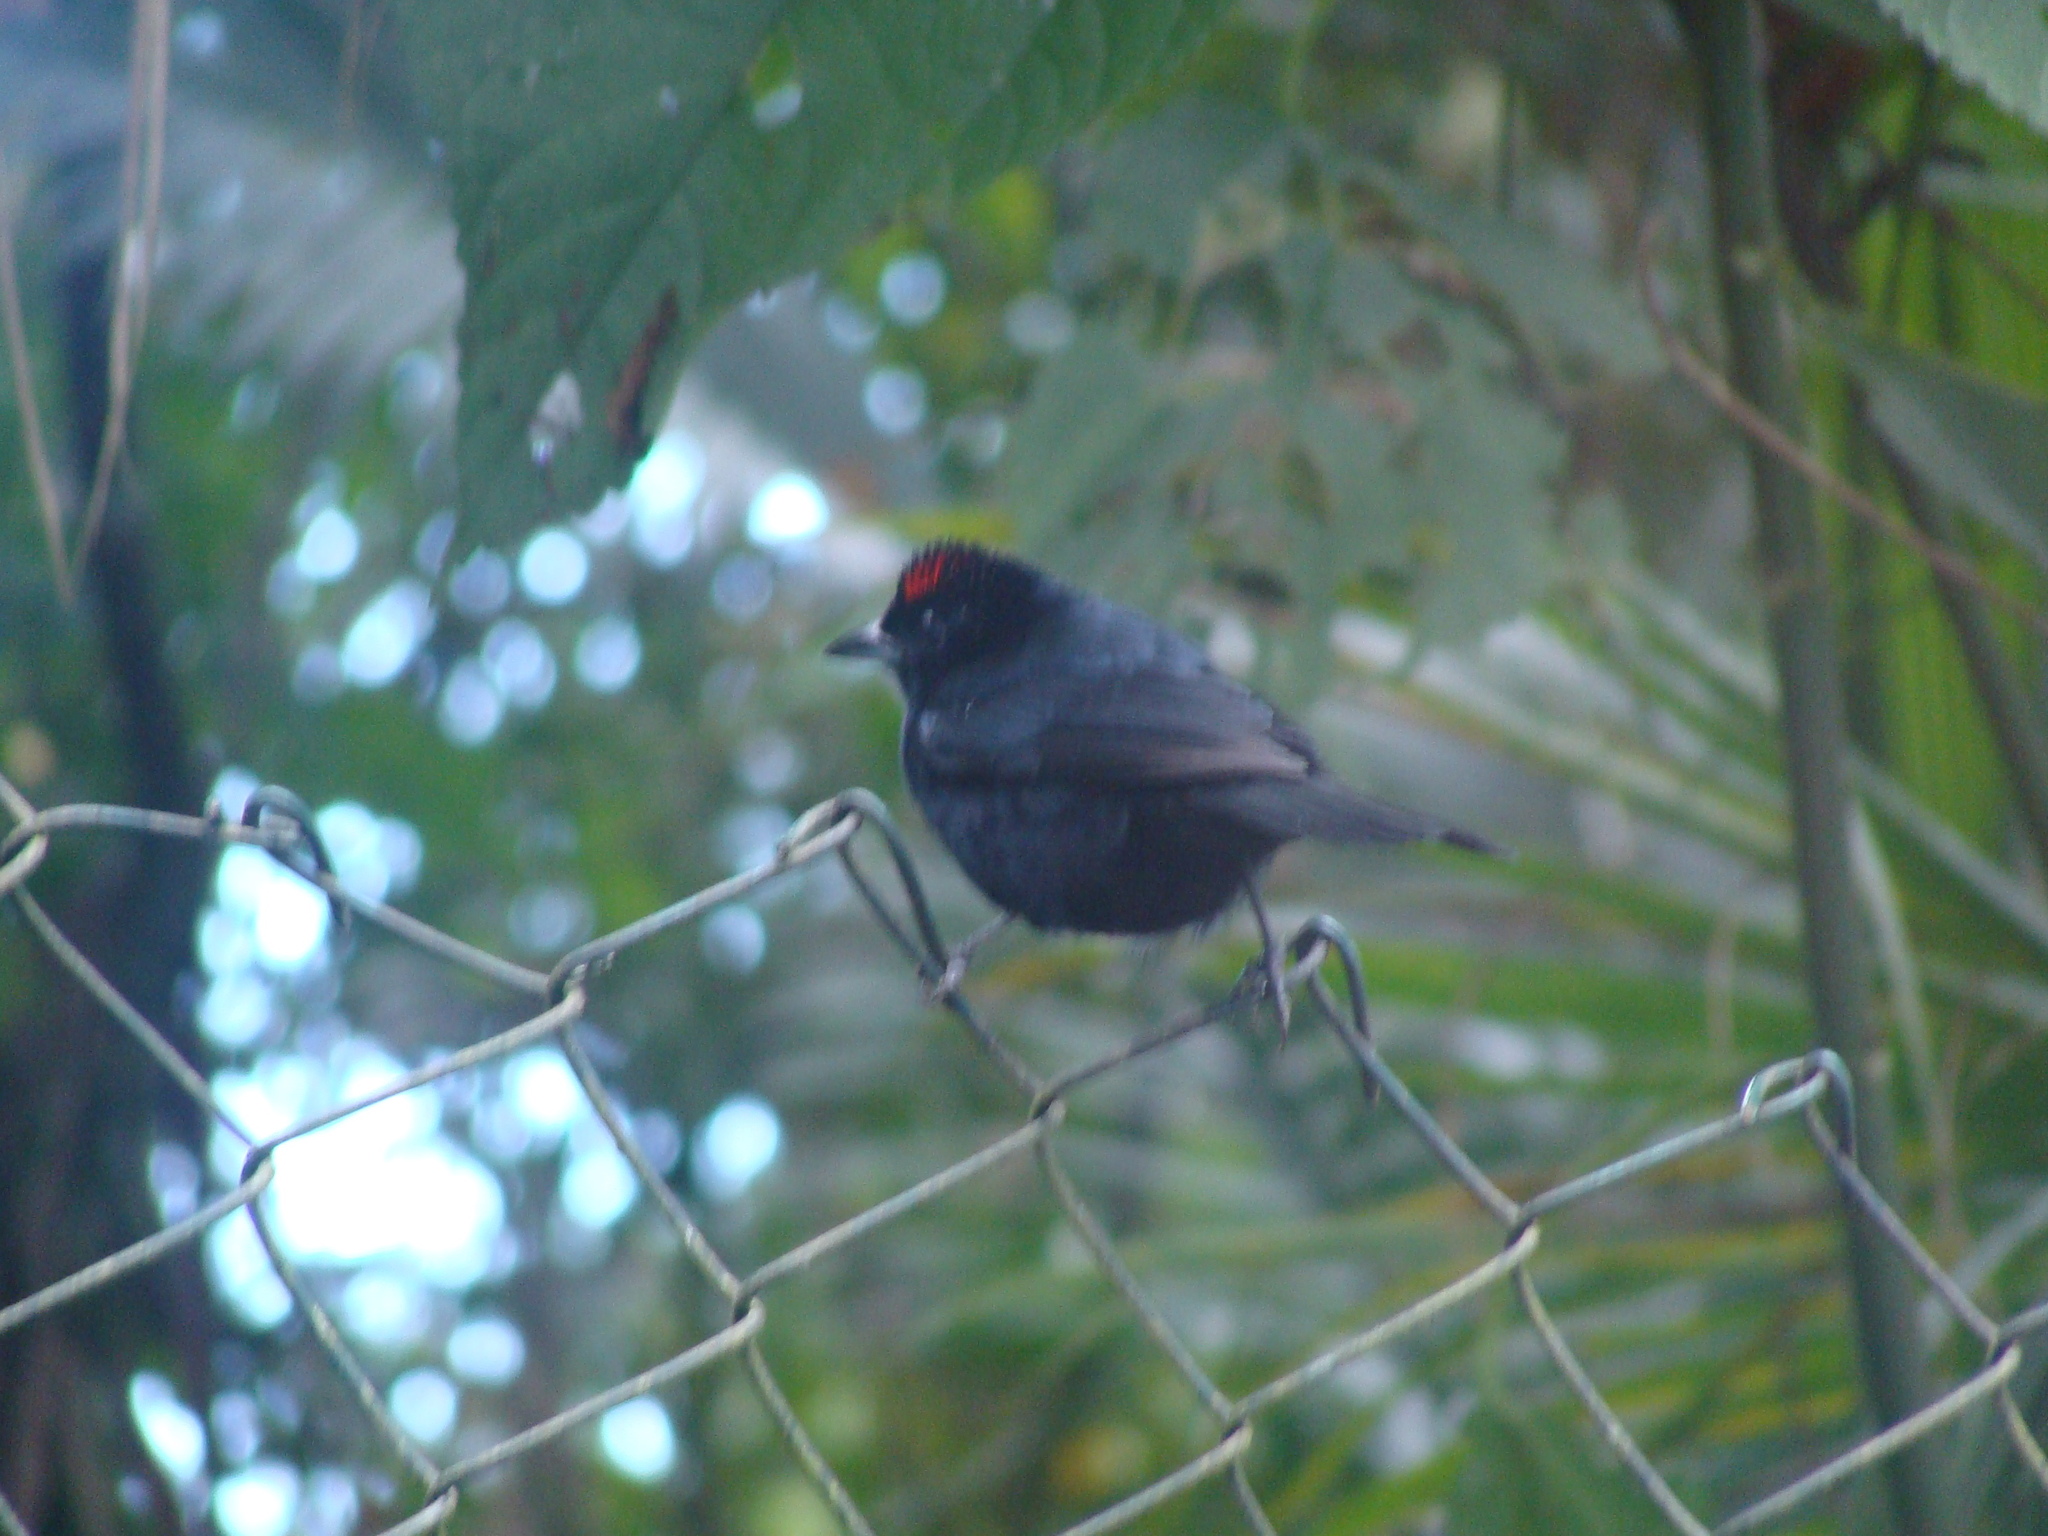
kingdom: Animalia
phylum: Chordata
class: Aves
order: Passeriformes
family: Thraupidae
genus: Tachyphonus
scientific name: Tachyphonus coronatus
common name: Ruby-crowned tanager
